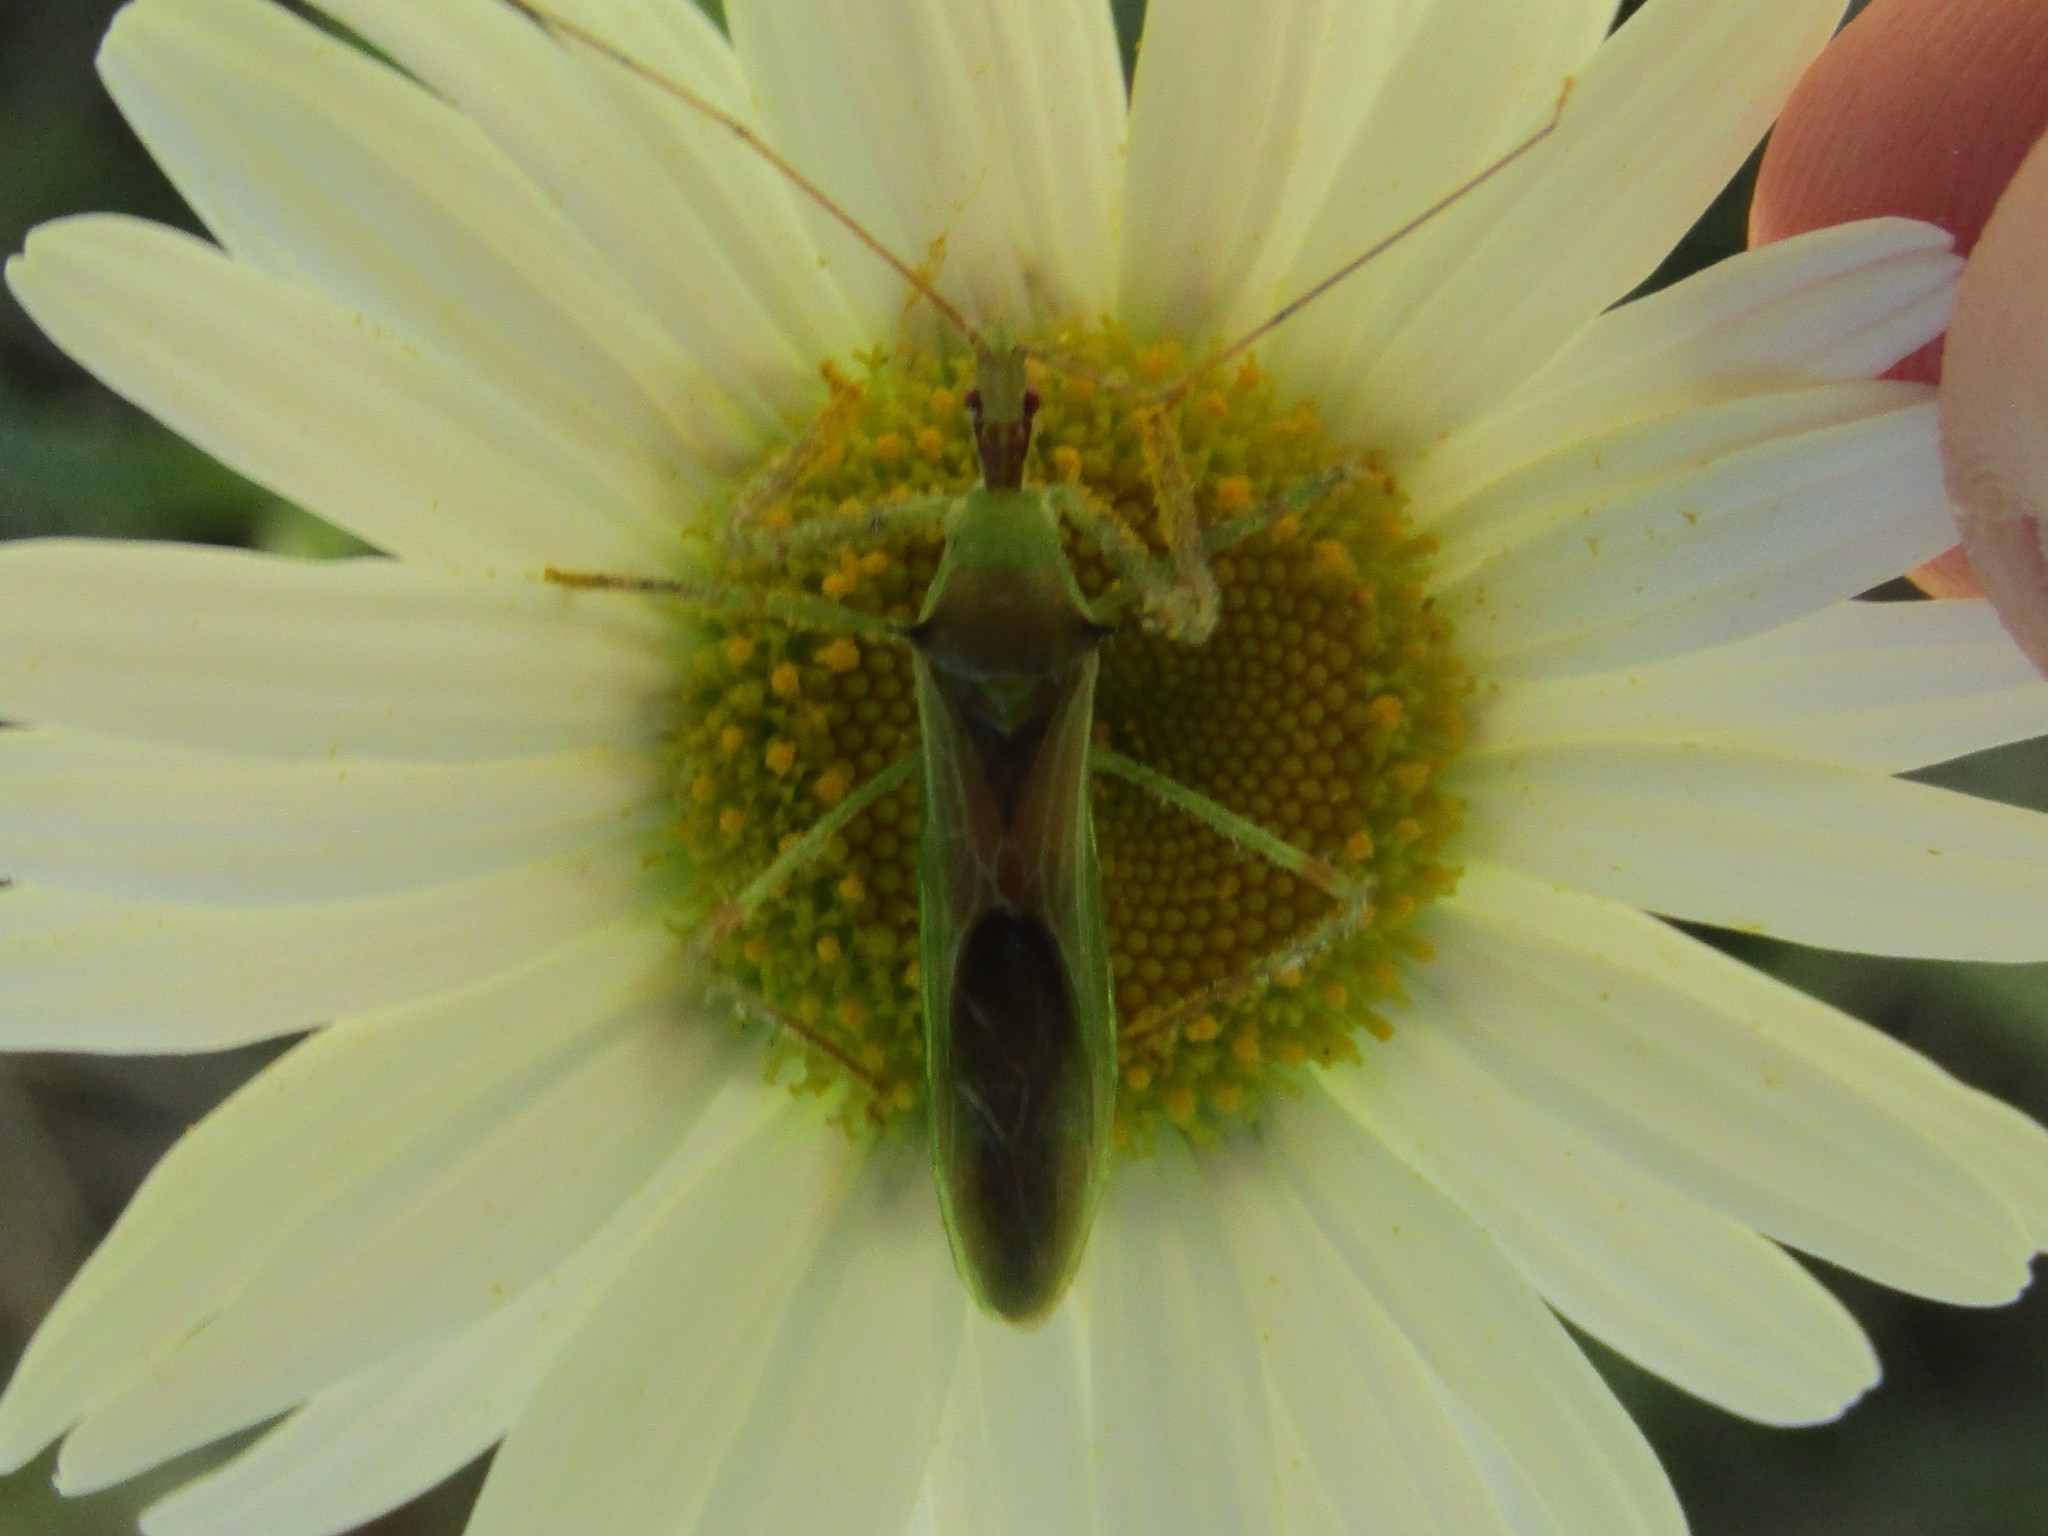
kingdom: Animalia
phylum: Arthropoda
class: Insecta
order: Hemiptera
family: Reduviidae
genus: Zelus
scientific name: Zelus luridus
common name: Pale green assassin bug
